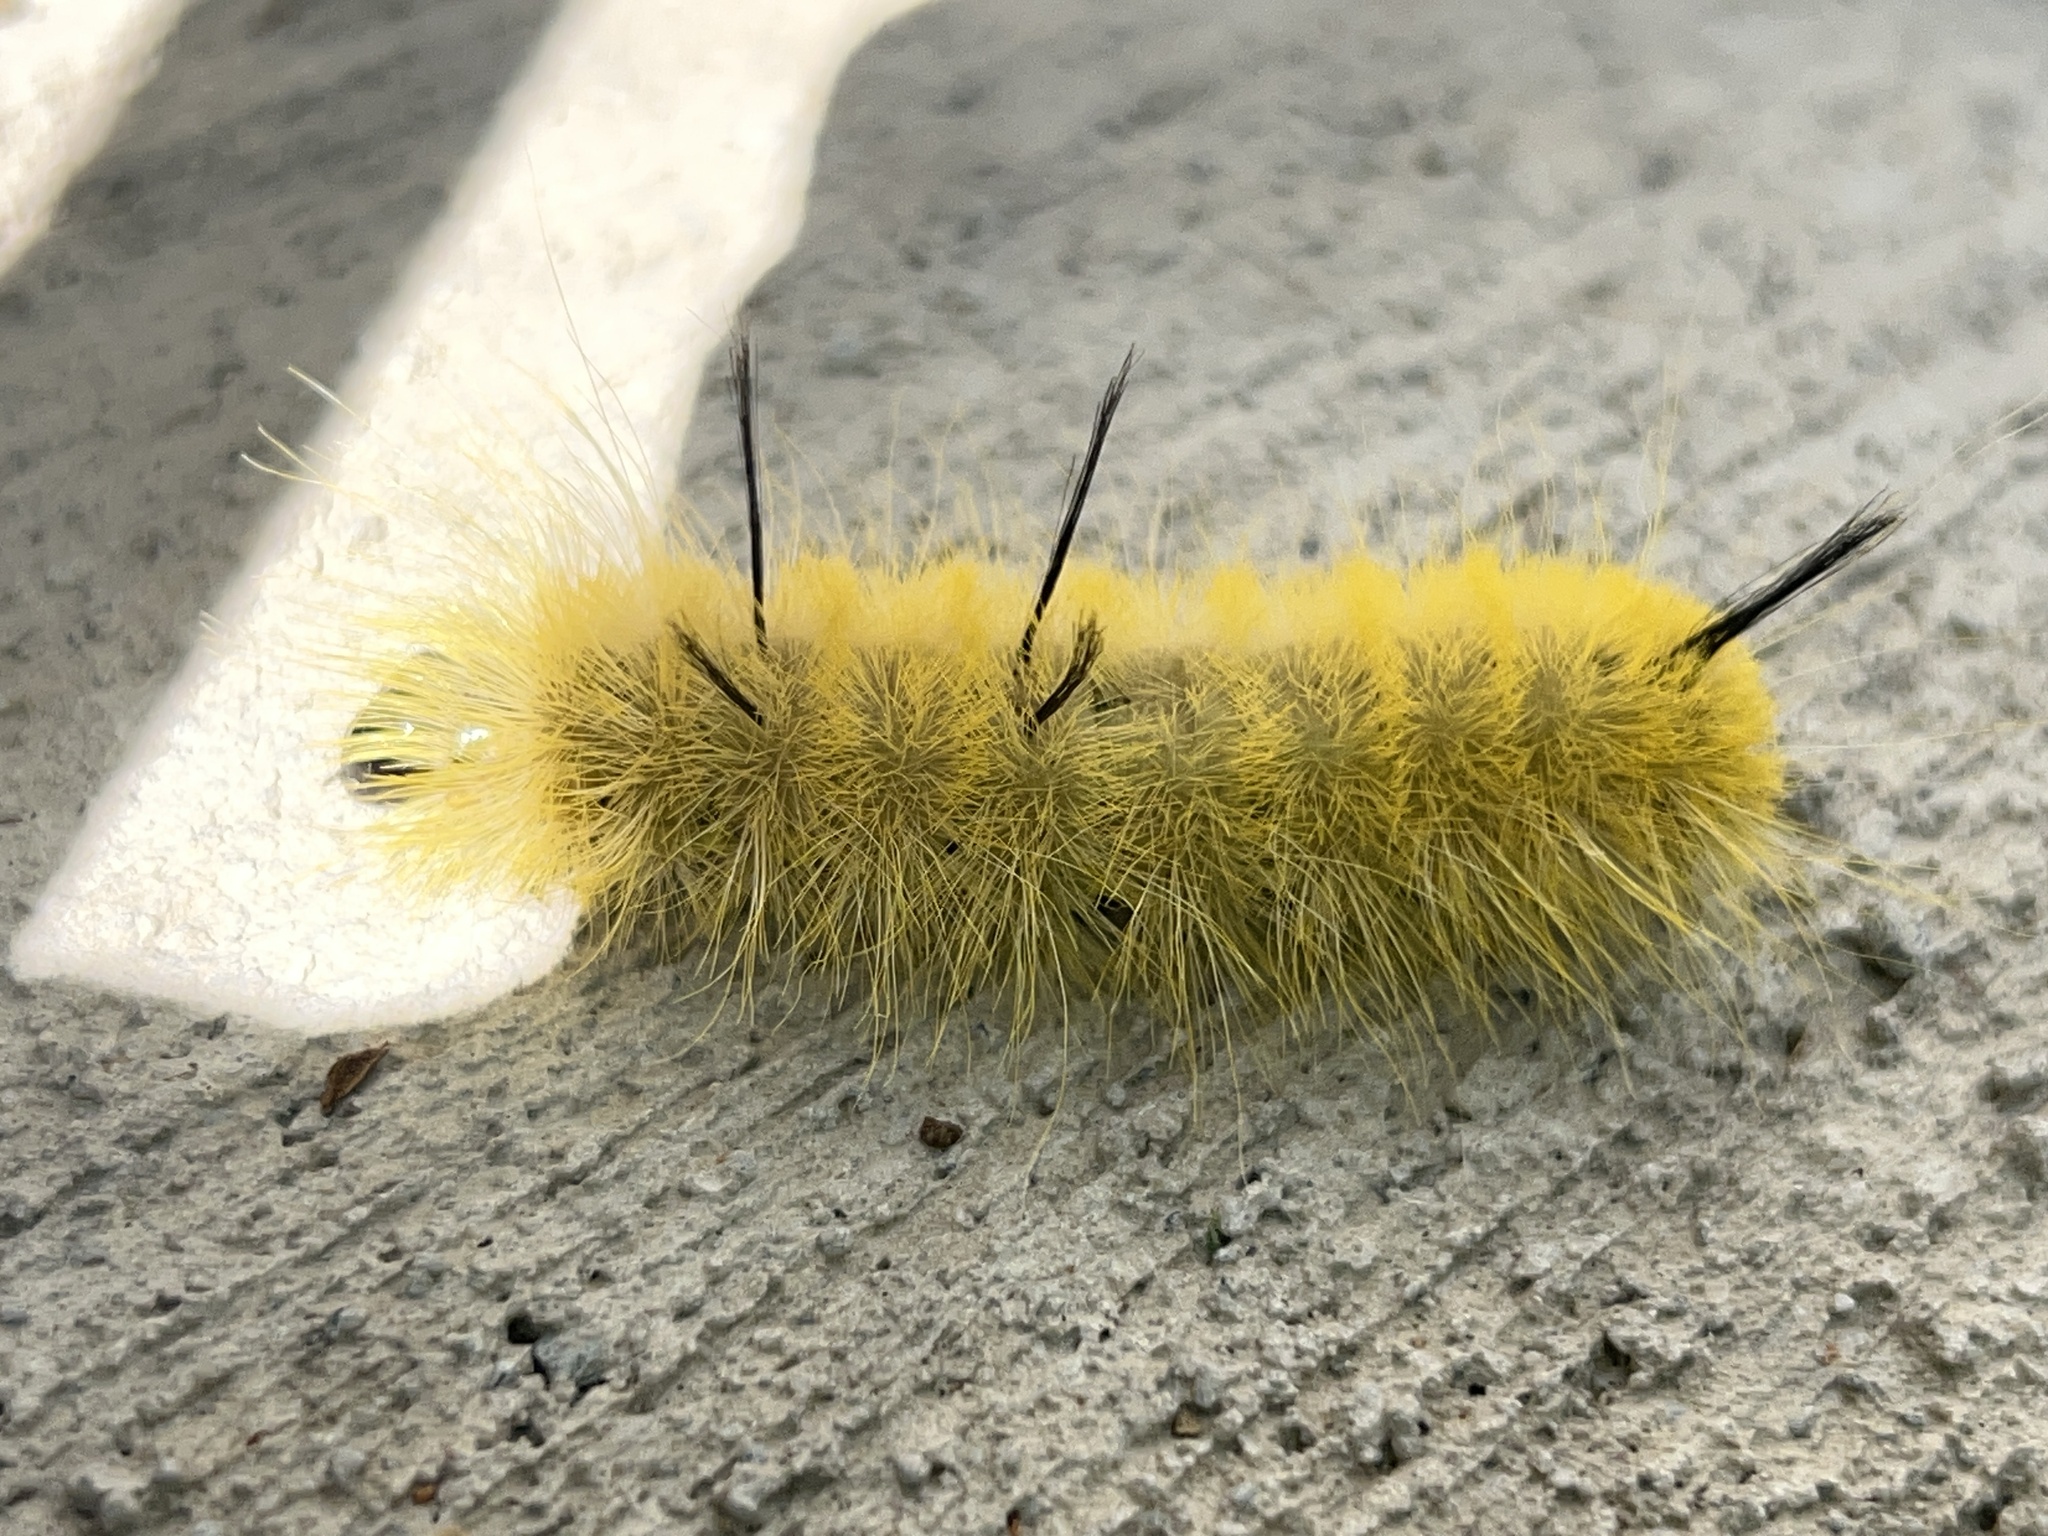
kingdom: Animalia
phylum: Arthropoda
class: Insecta
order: Lepidoptera
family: Noctuidae
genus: Acronicta
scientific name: Acronicta americana
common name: American dagger
